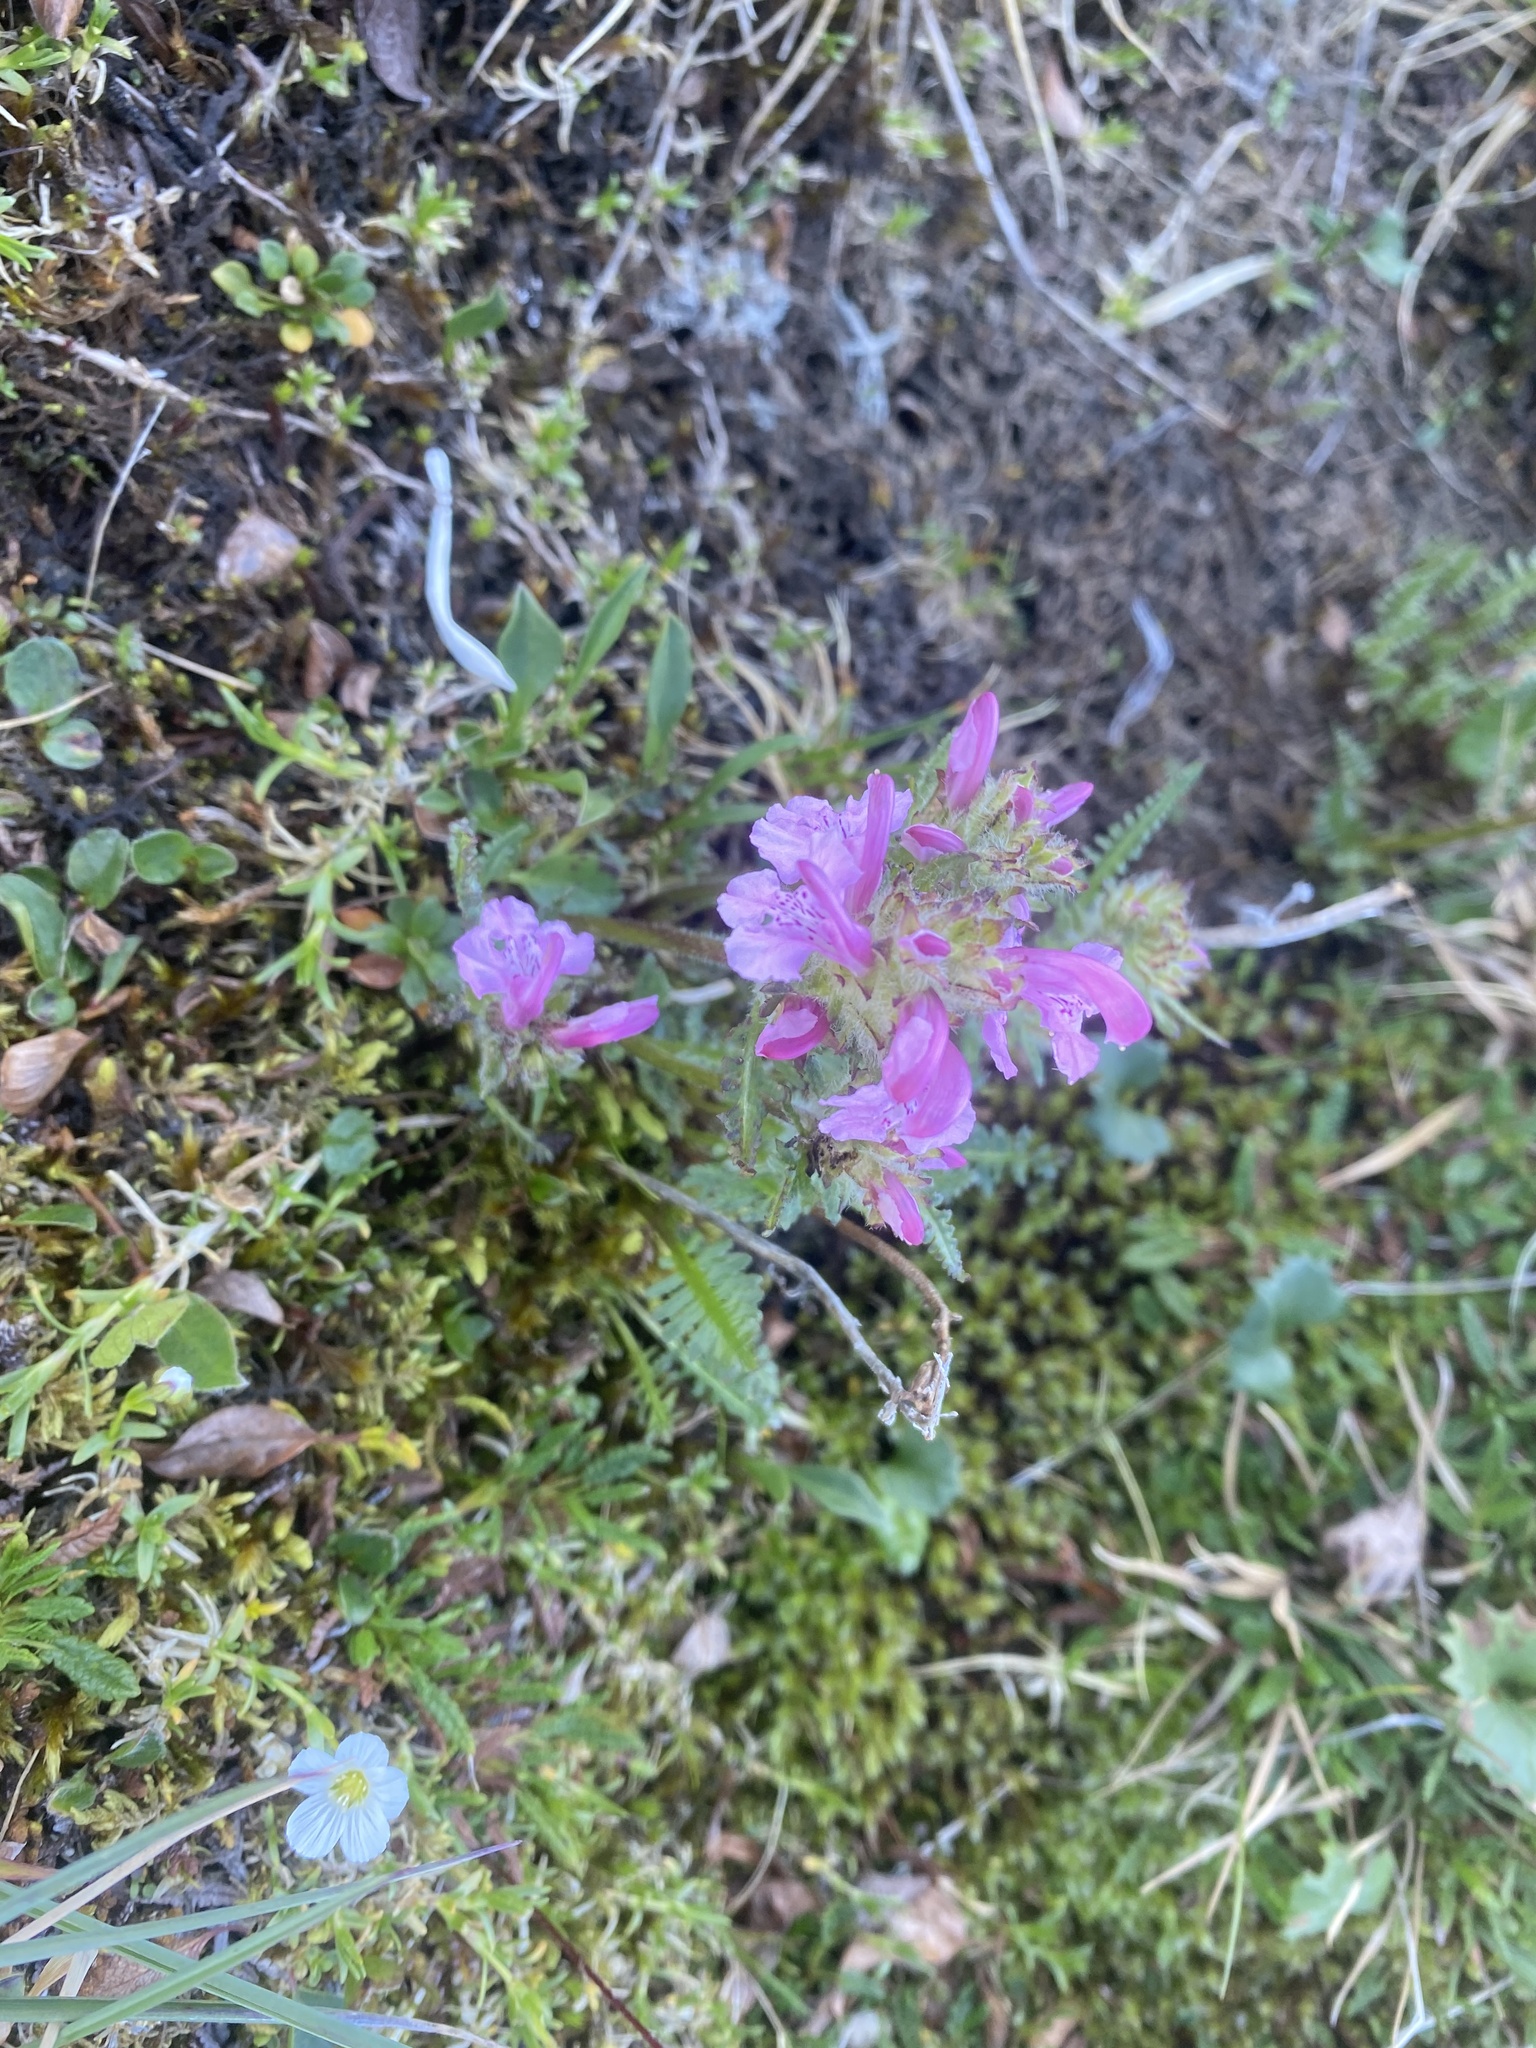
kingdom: Plantae
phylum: Tracheophyta
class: Magnoliopsida
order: Lamiales
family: Orobanchaceae
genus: Pedicularis
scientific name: Pedicularis novaiae-zemliae
